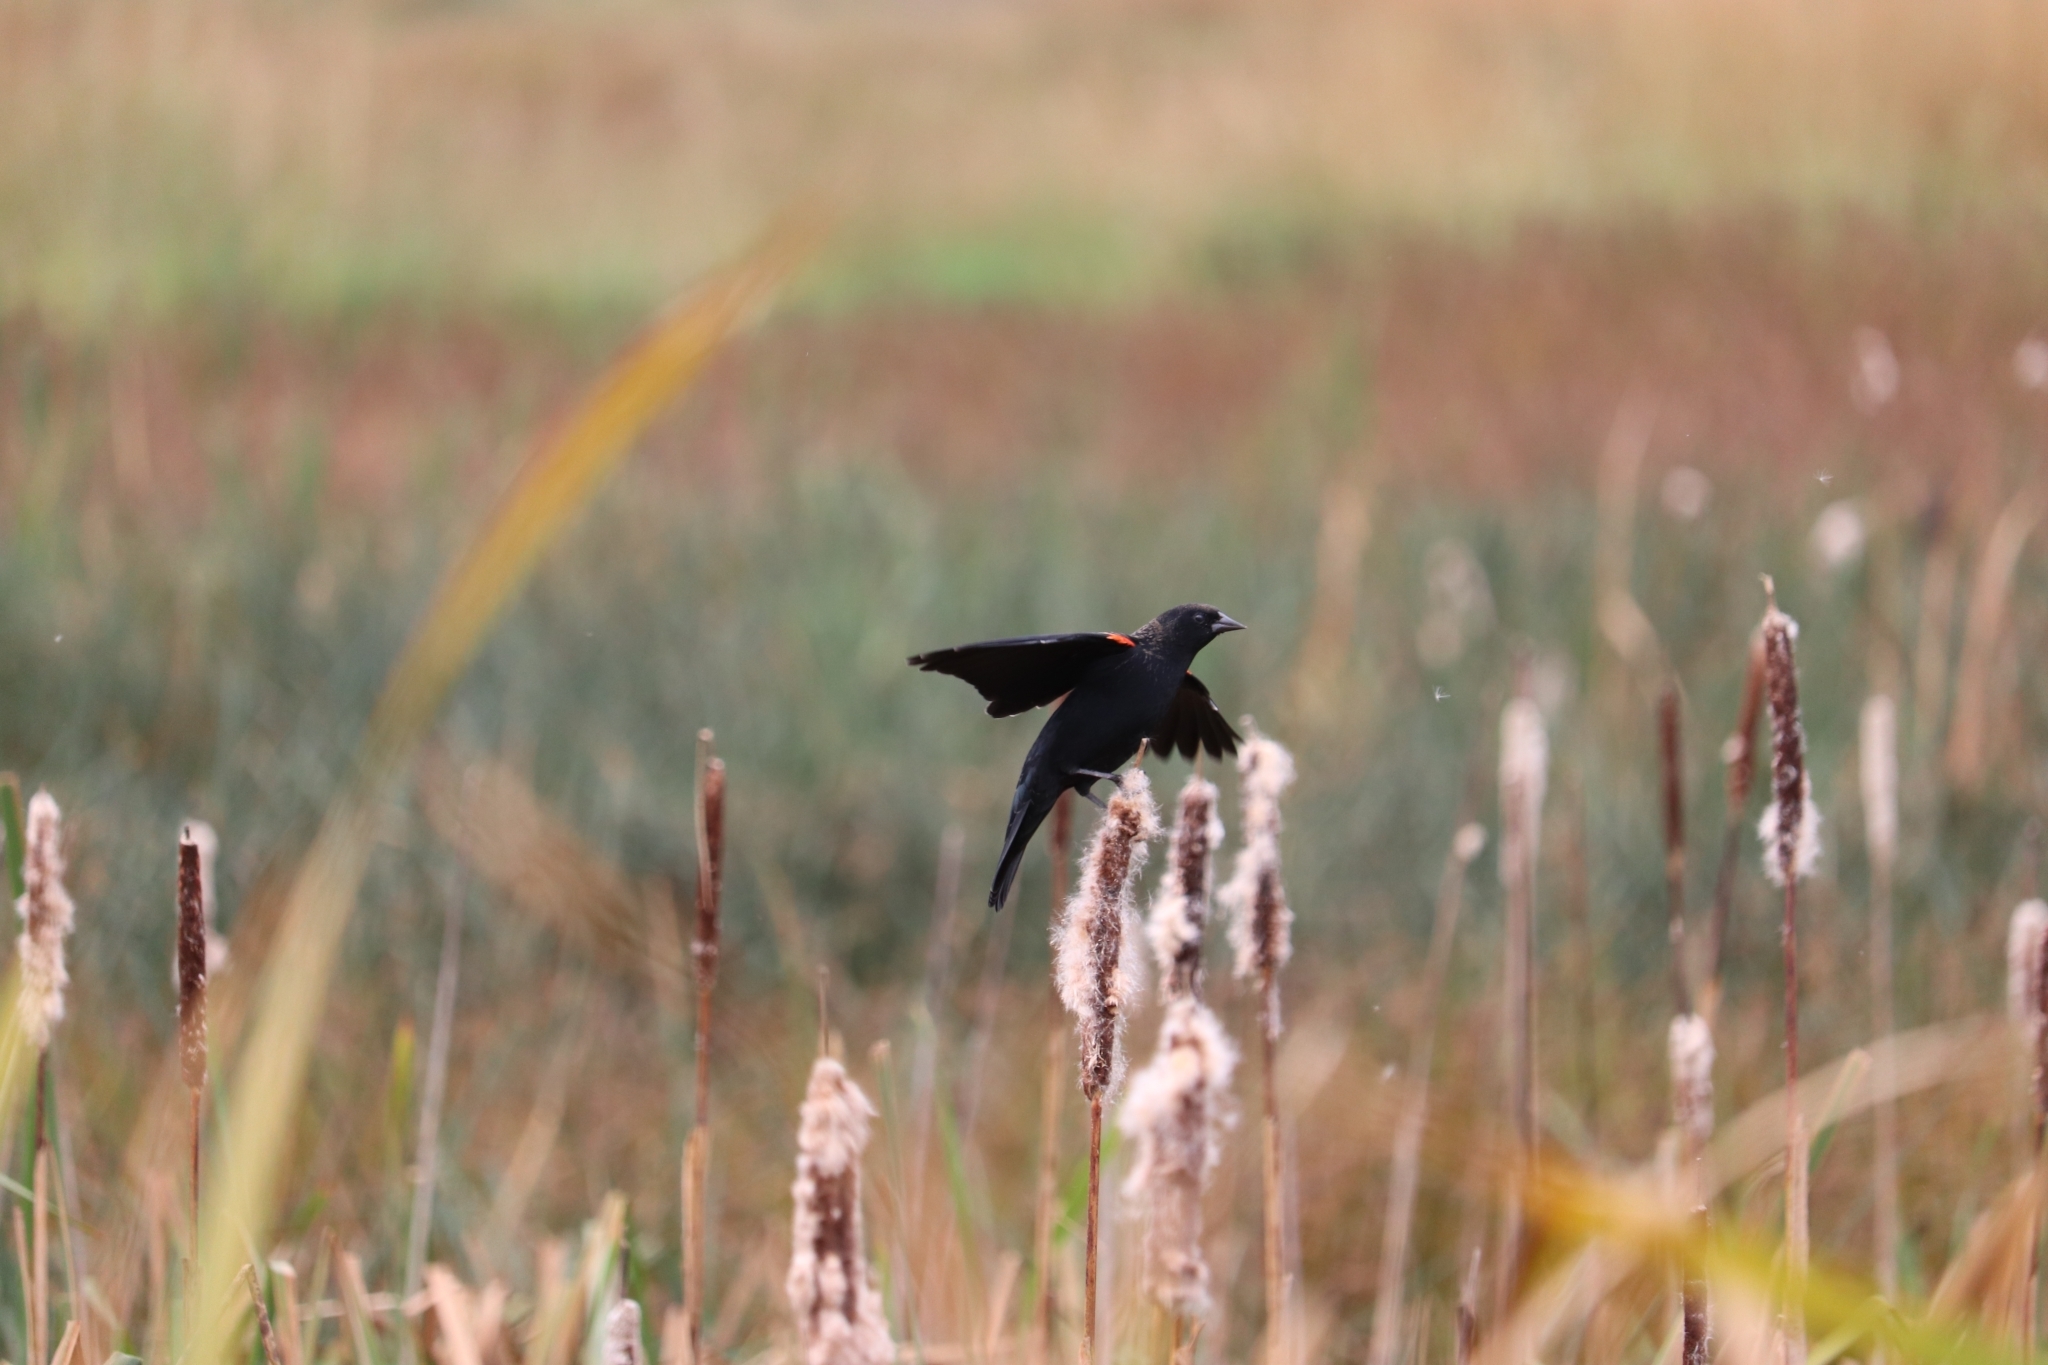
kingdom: Animalia
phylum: Chordata
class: Aves
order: Passeriformes
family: Icteridae
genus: Agelaius
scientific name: Agelaius phoeniceus
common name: Red-winged blackbird
